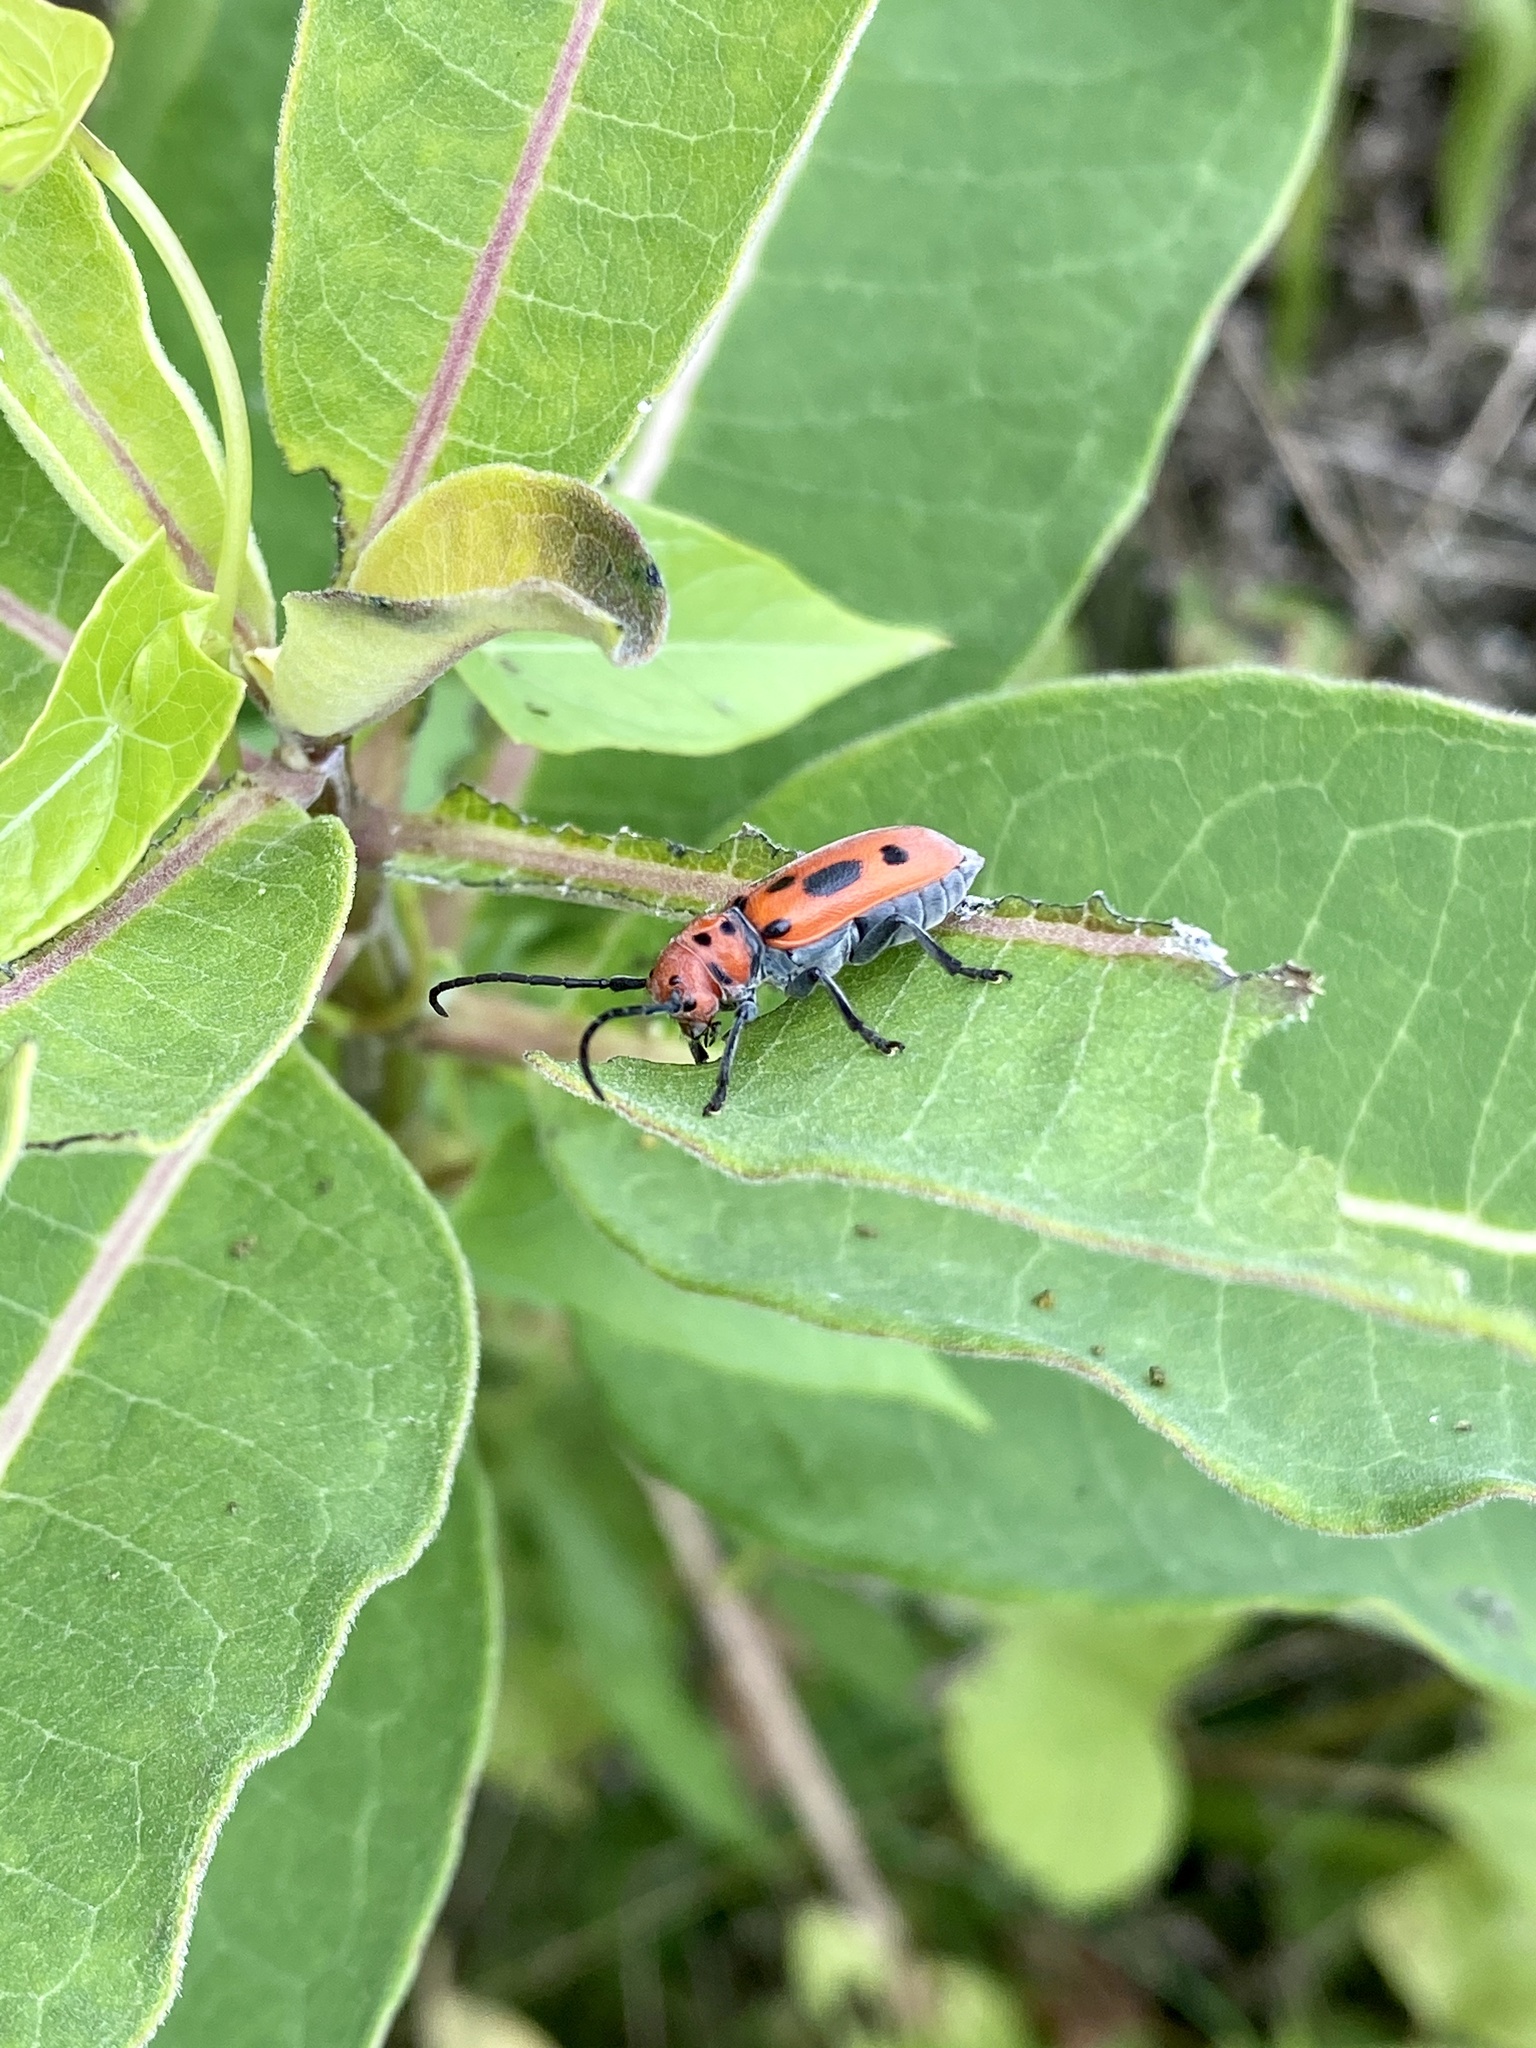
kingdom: Animalia
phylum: Arthropoda
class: Insecta
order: Coleoptera
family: Cerambycidae
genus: Tetraopes
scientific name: Tetraopes tetrophthalmus
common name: Red milkweed beetle
